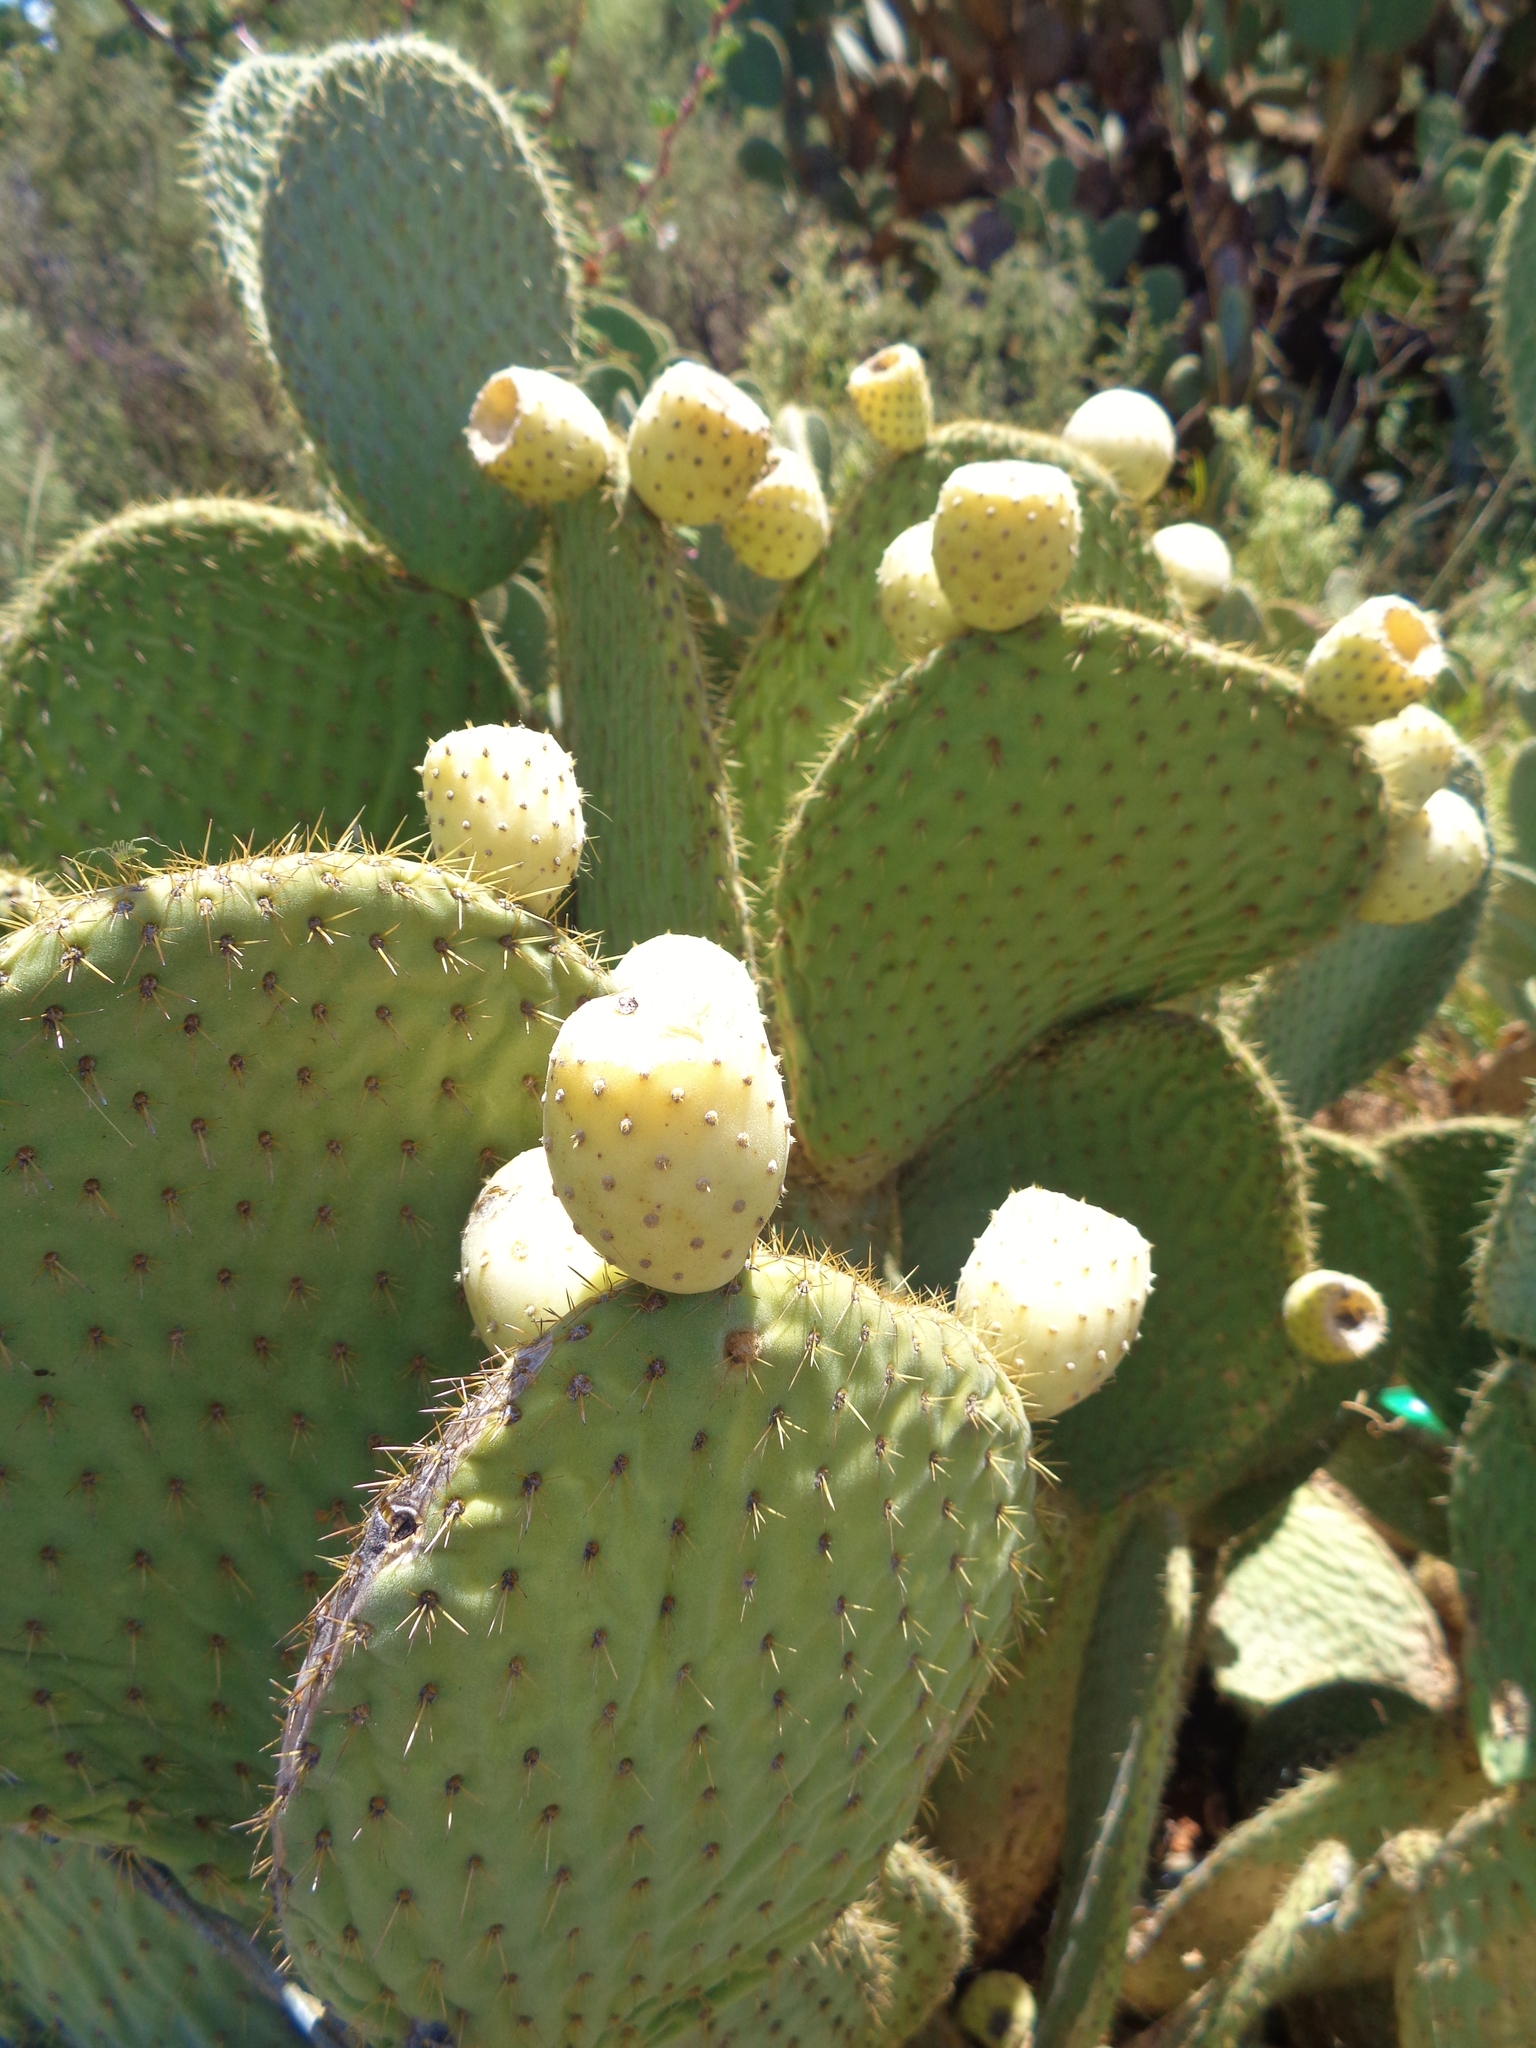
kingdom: Plantae
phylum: Tracheophyta
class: Magnoliopsida
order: Caryophyllales
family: Cactaceae
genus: Opuntia
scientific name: Opuntia leucotricha
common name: Arborescent pricklypear
